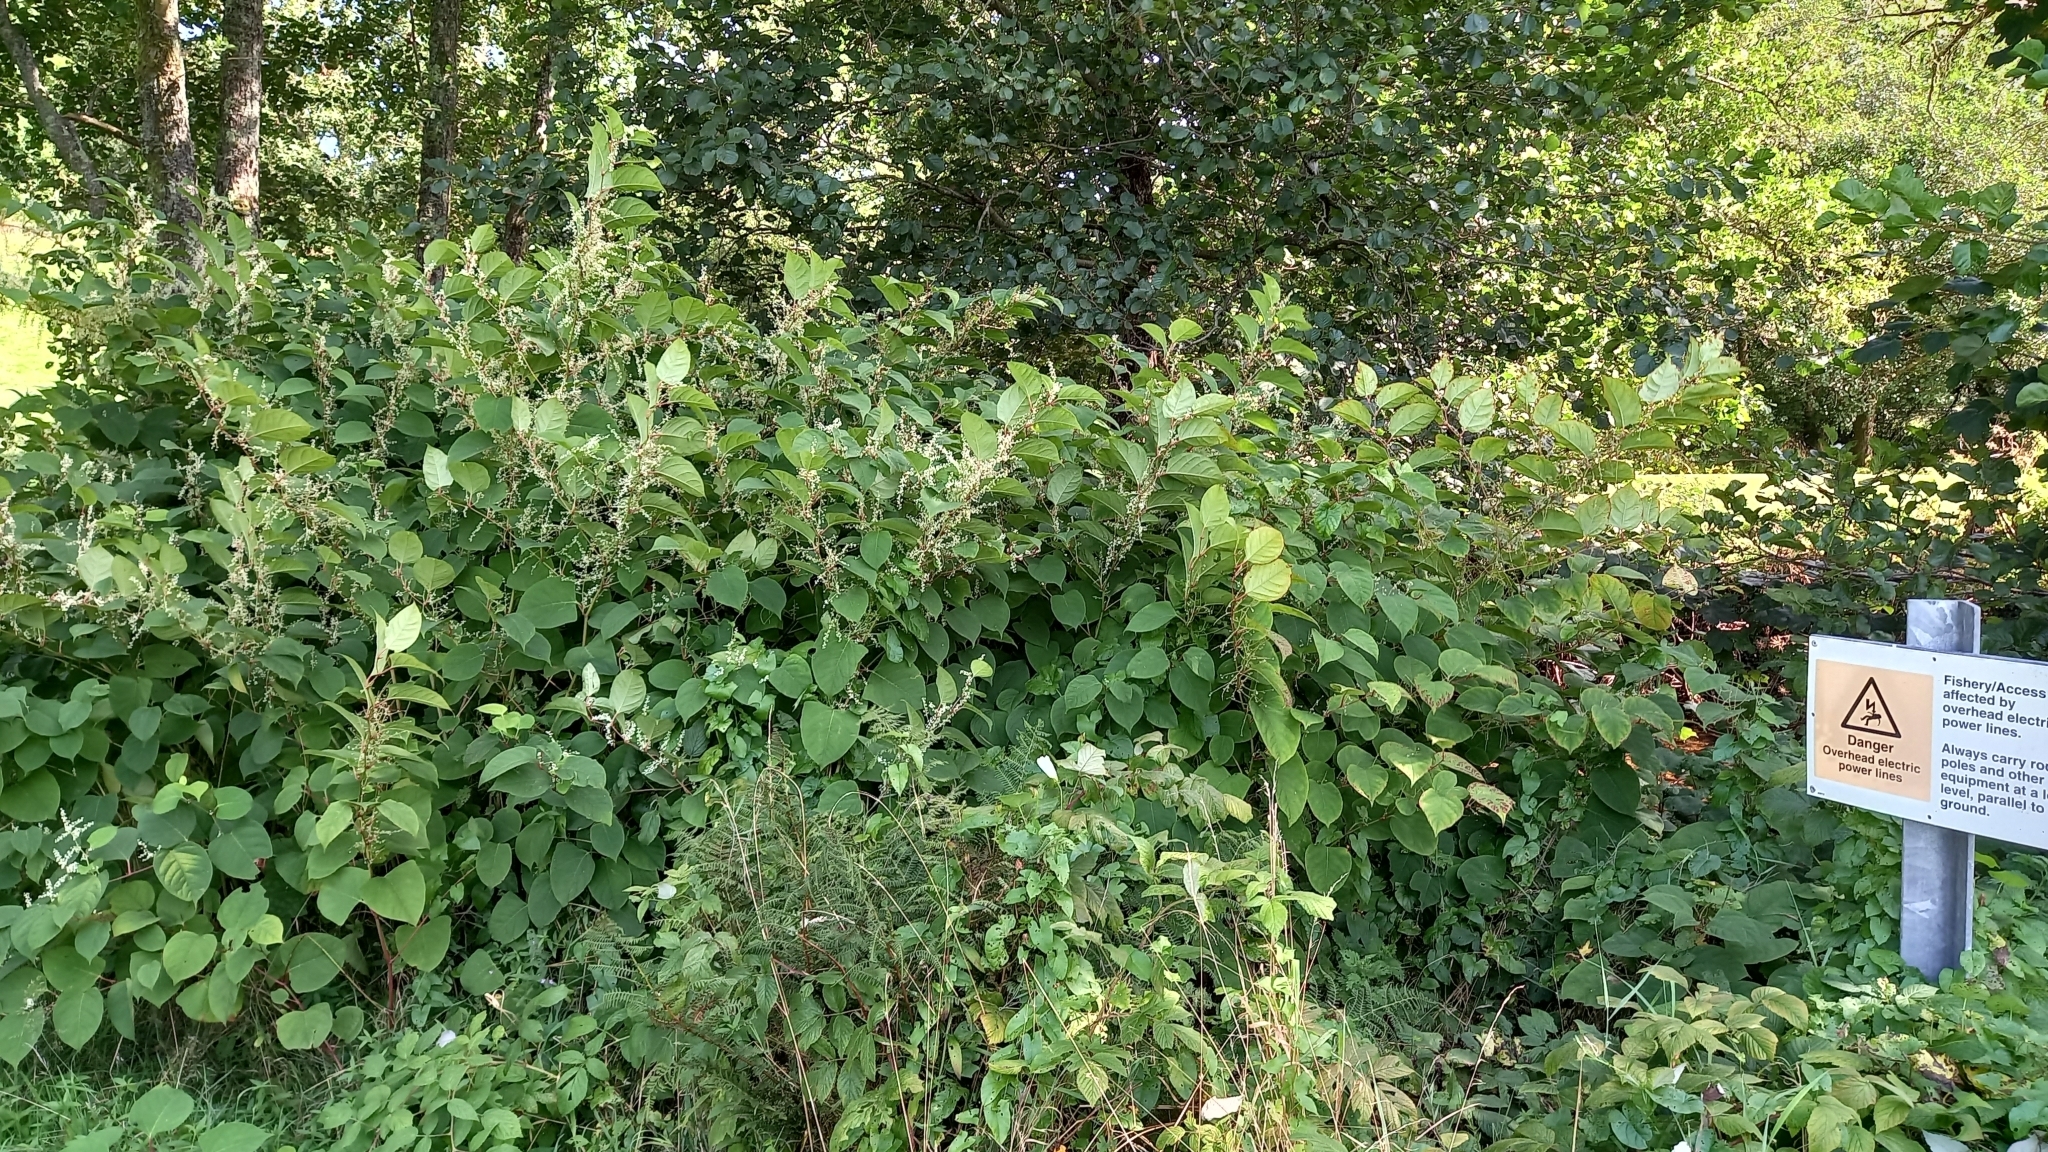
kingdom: Plantae
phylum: Tracheophyta
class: Magnoliopsida
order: Caryophyllales
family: Polygonaceae
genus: Reynoutria
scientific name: Reynoutria japonica
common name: Japanese knotweed
